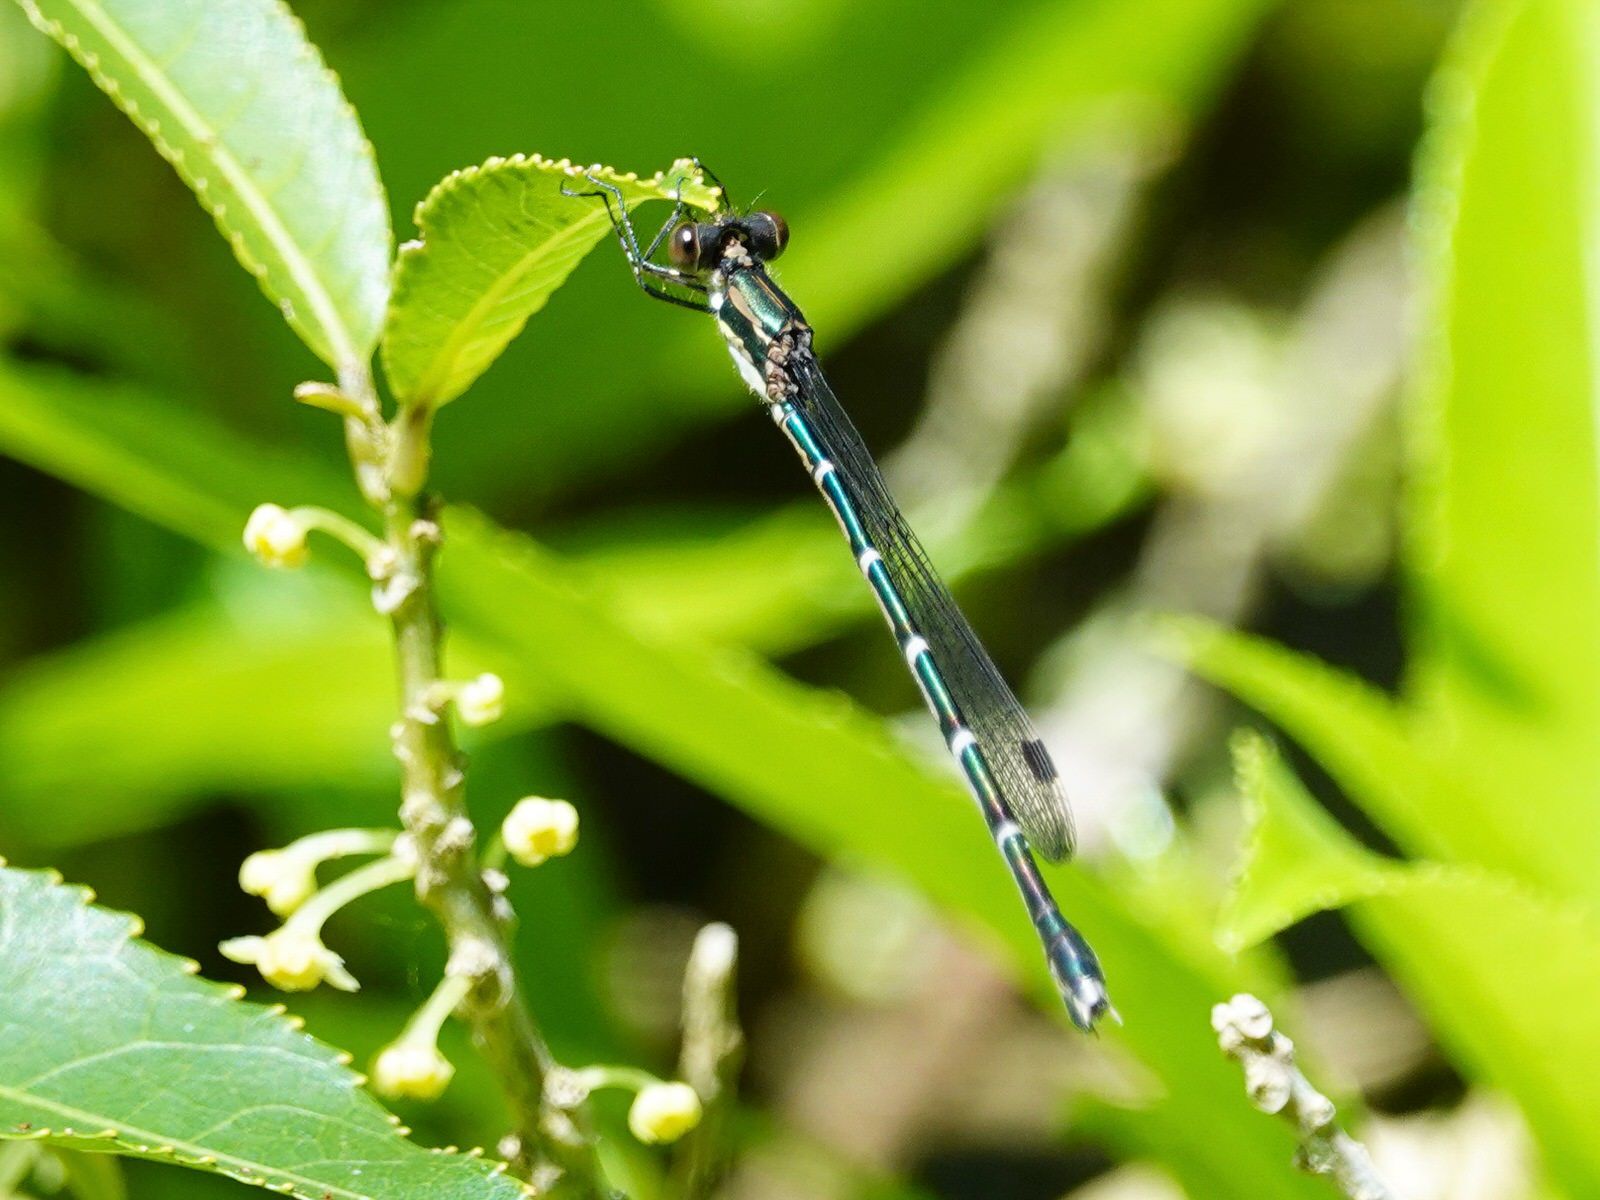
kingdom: Animalia
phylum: Arthropoda
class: Insecta
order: Odonata
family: Lestidae
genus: Austrolestes
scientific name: Austrolestes colensonis
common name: Blue damselfly
